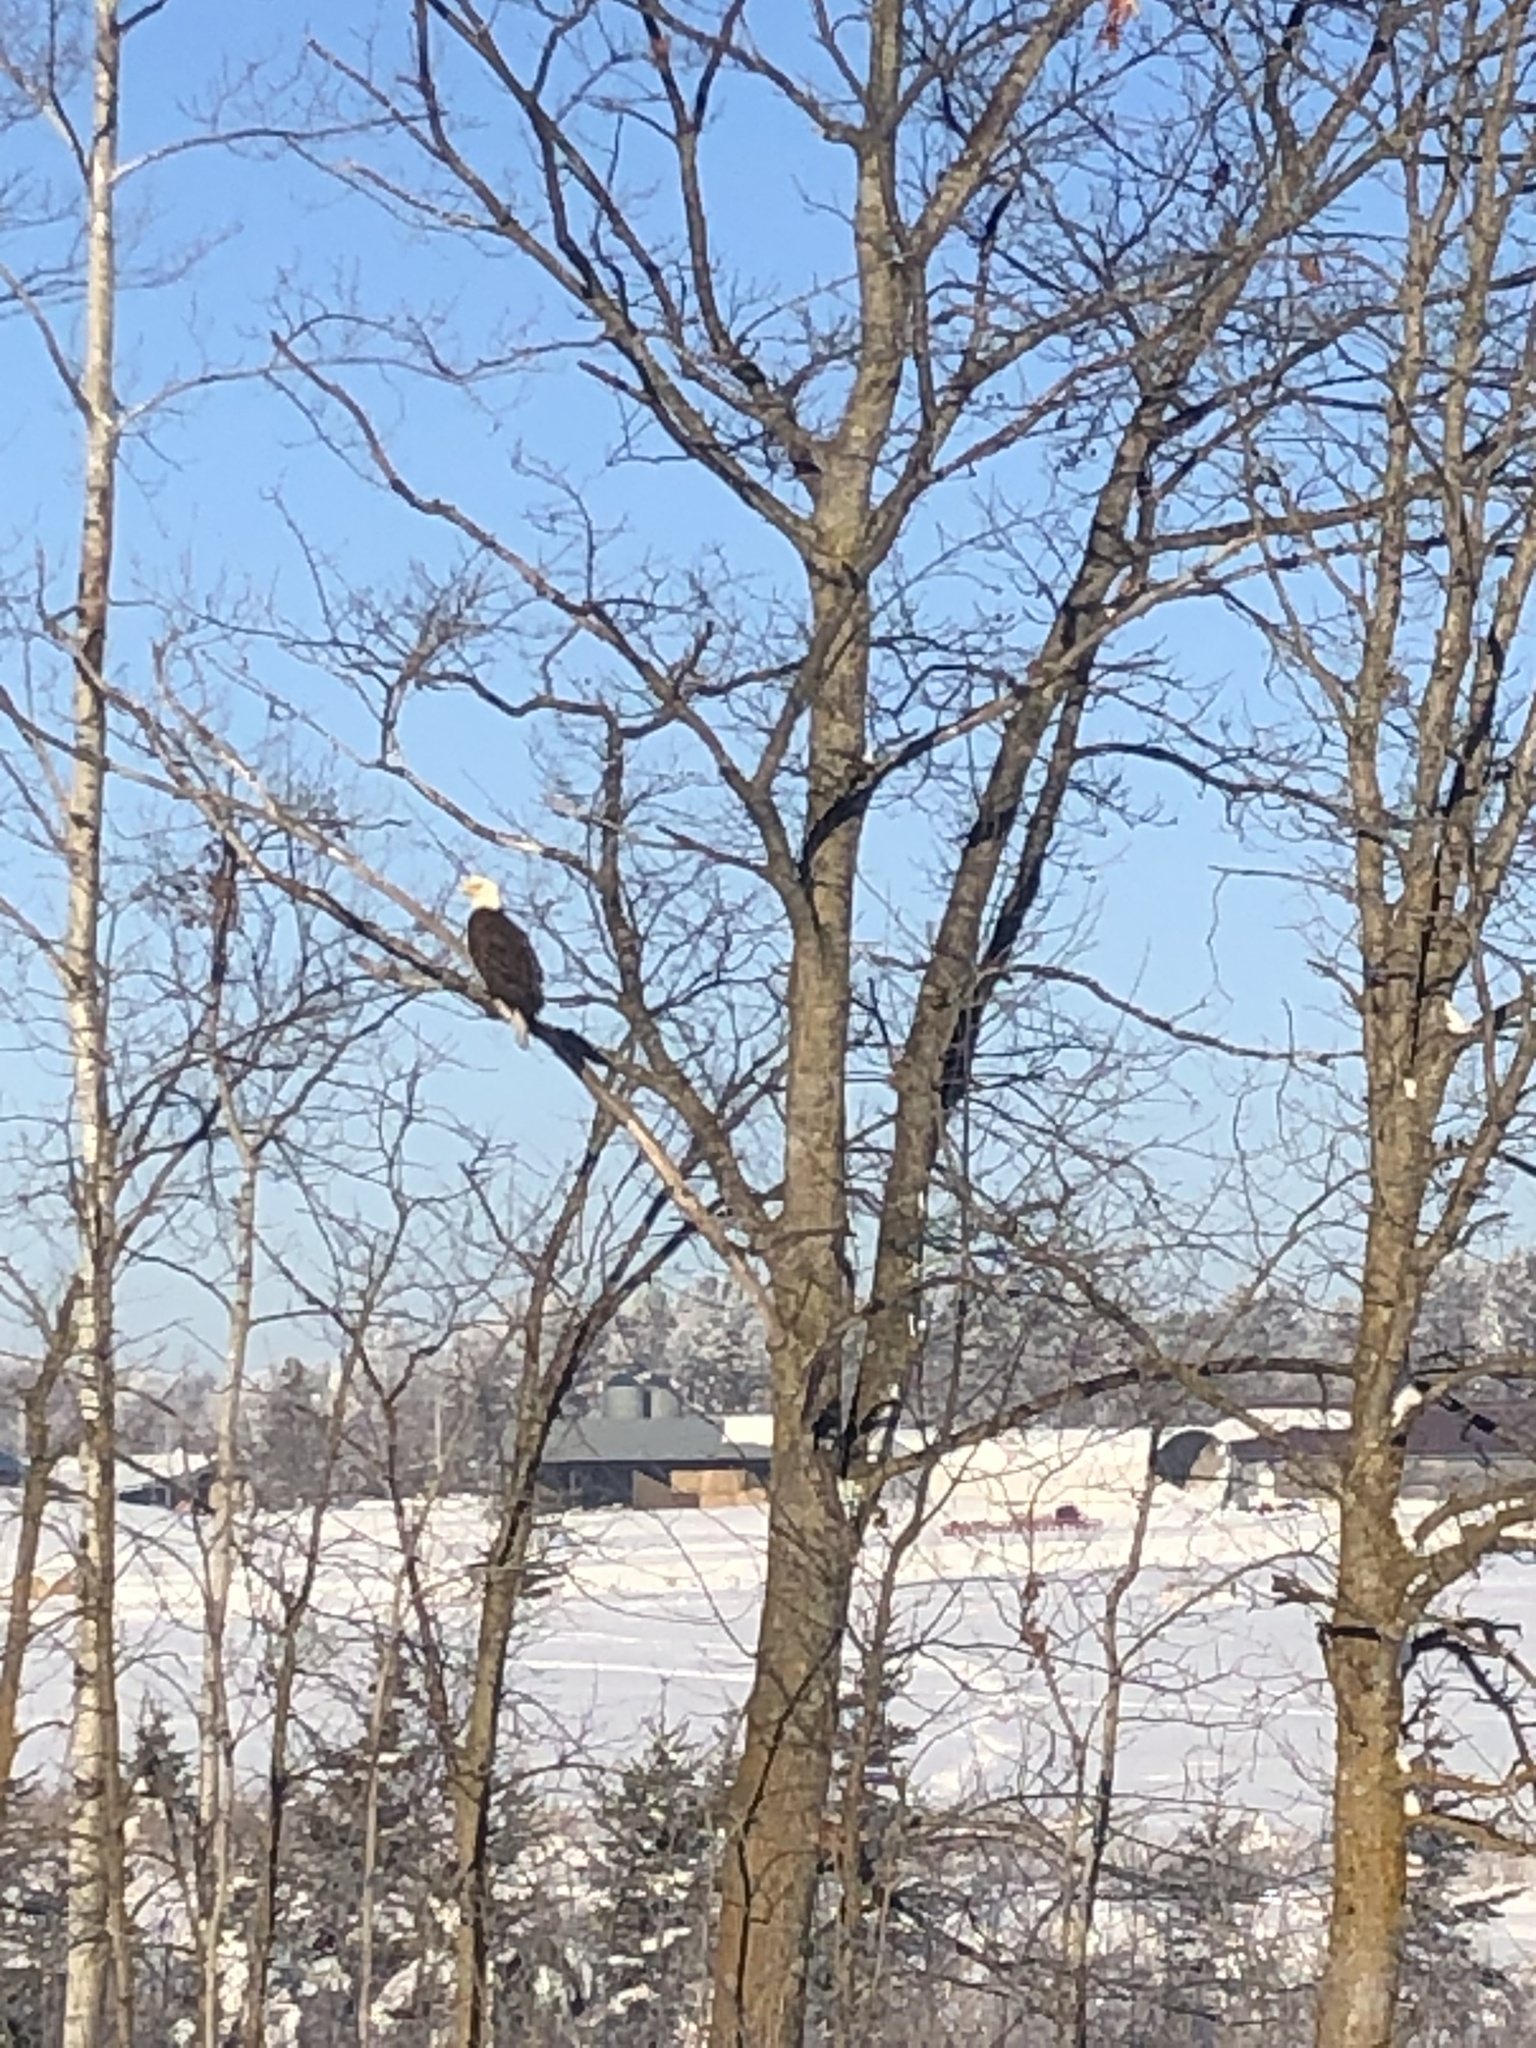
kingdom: Animalia
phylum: Chordata
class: Aves
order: Accipitriformes
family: Accipitridae
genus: Haliaeetus
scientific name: Haliaeetus leucocephalus
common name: Bald eagle
